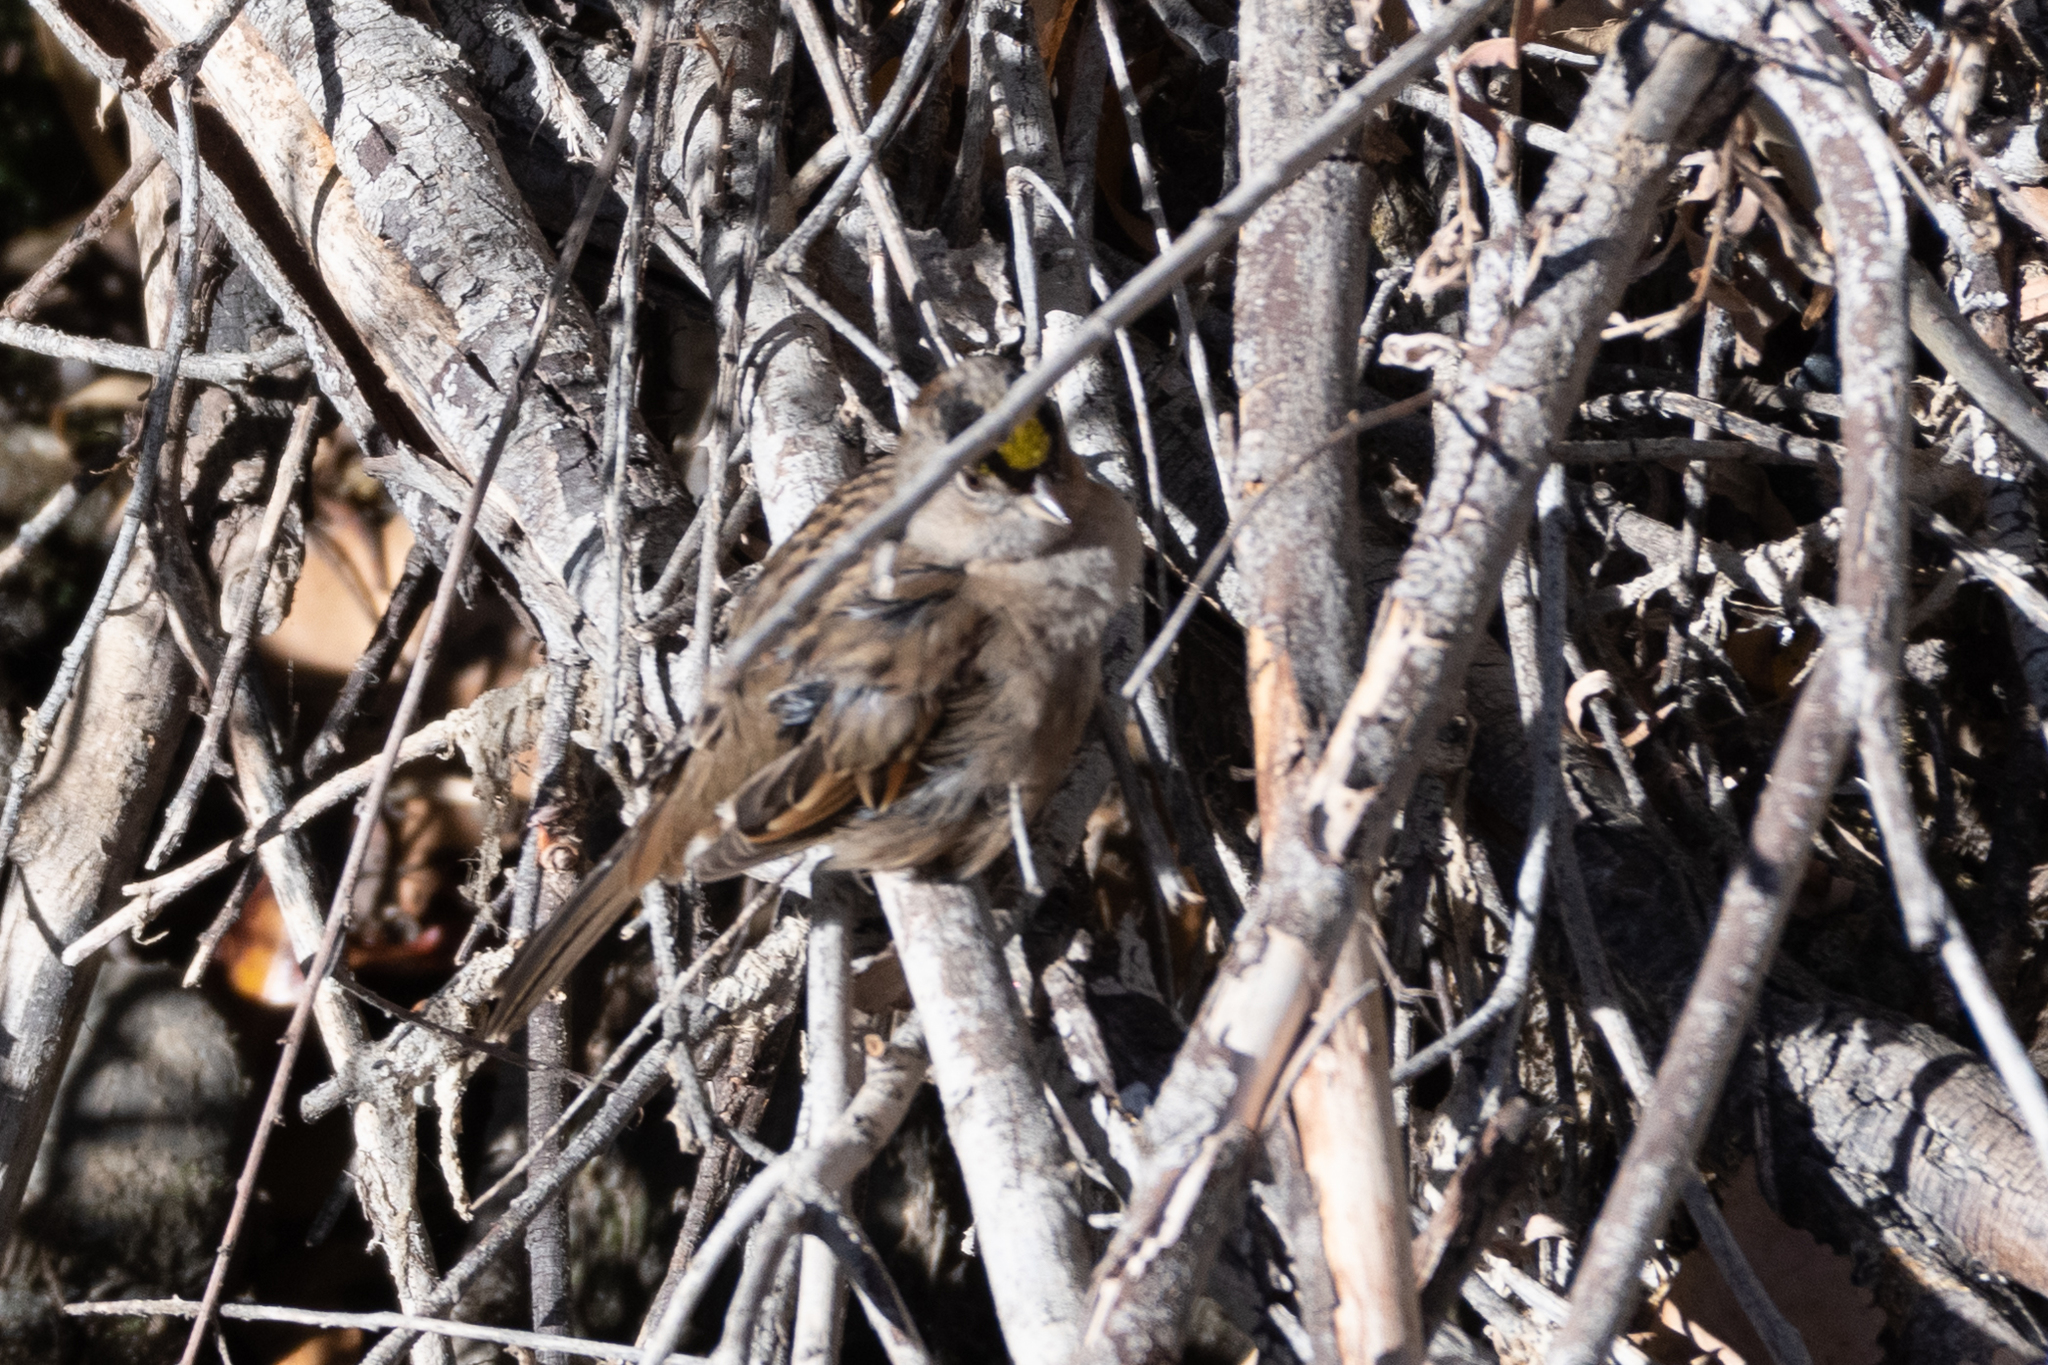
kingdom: Animalia
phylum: Chordata
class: Aves
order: Passeriformes
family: Passerellidae
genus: Zonotrichia
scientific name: Zonotrichia atricapilla
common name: Golden-crowned sparrow
